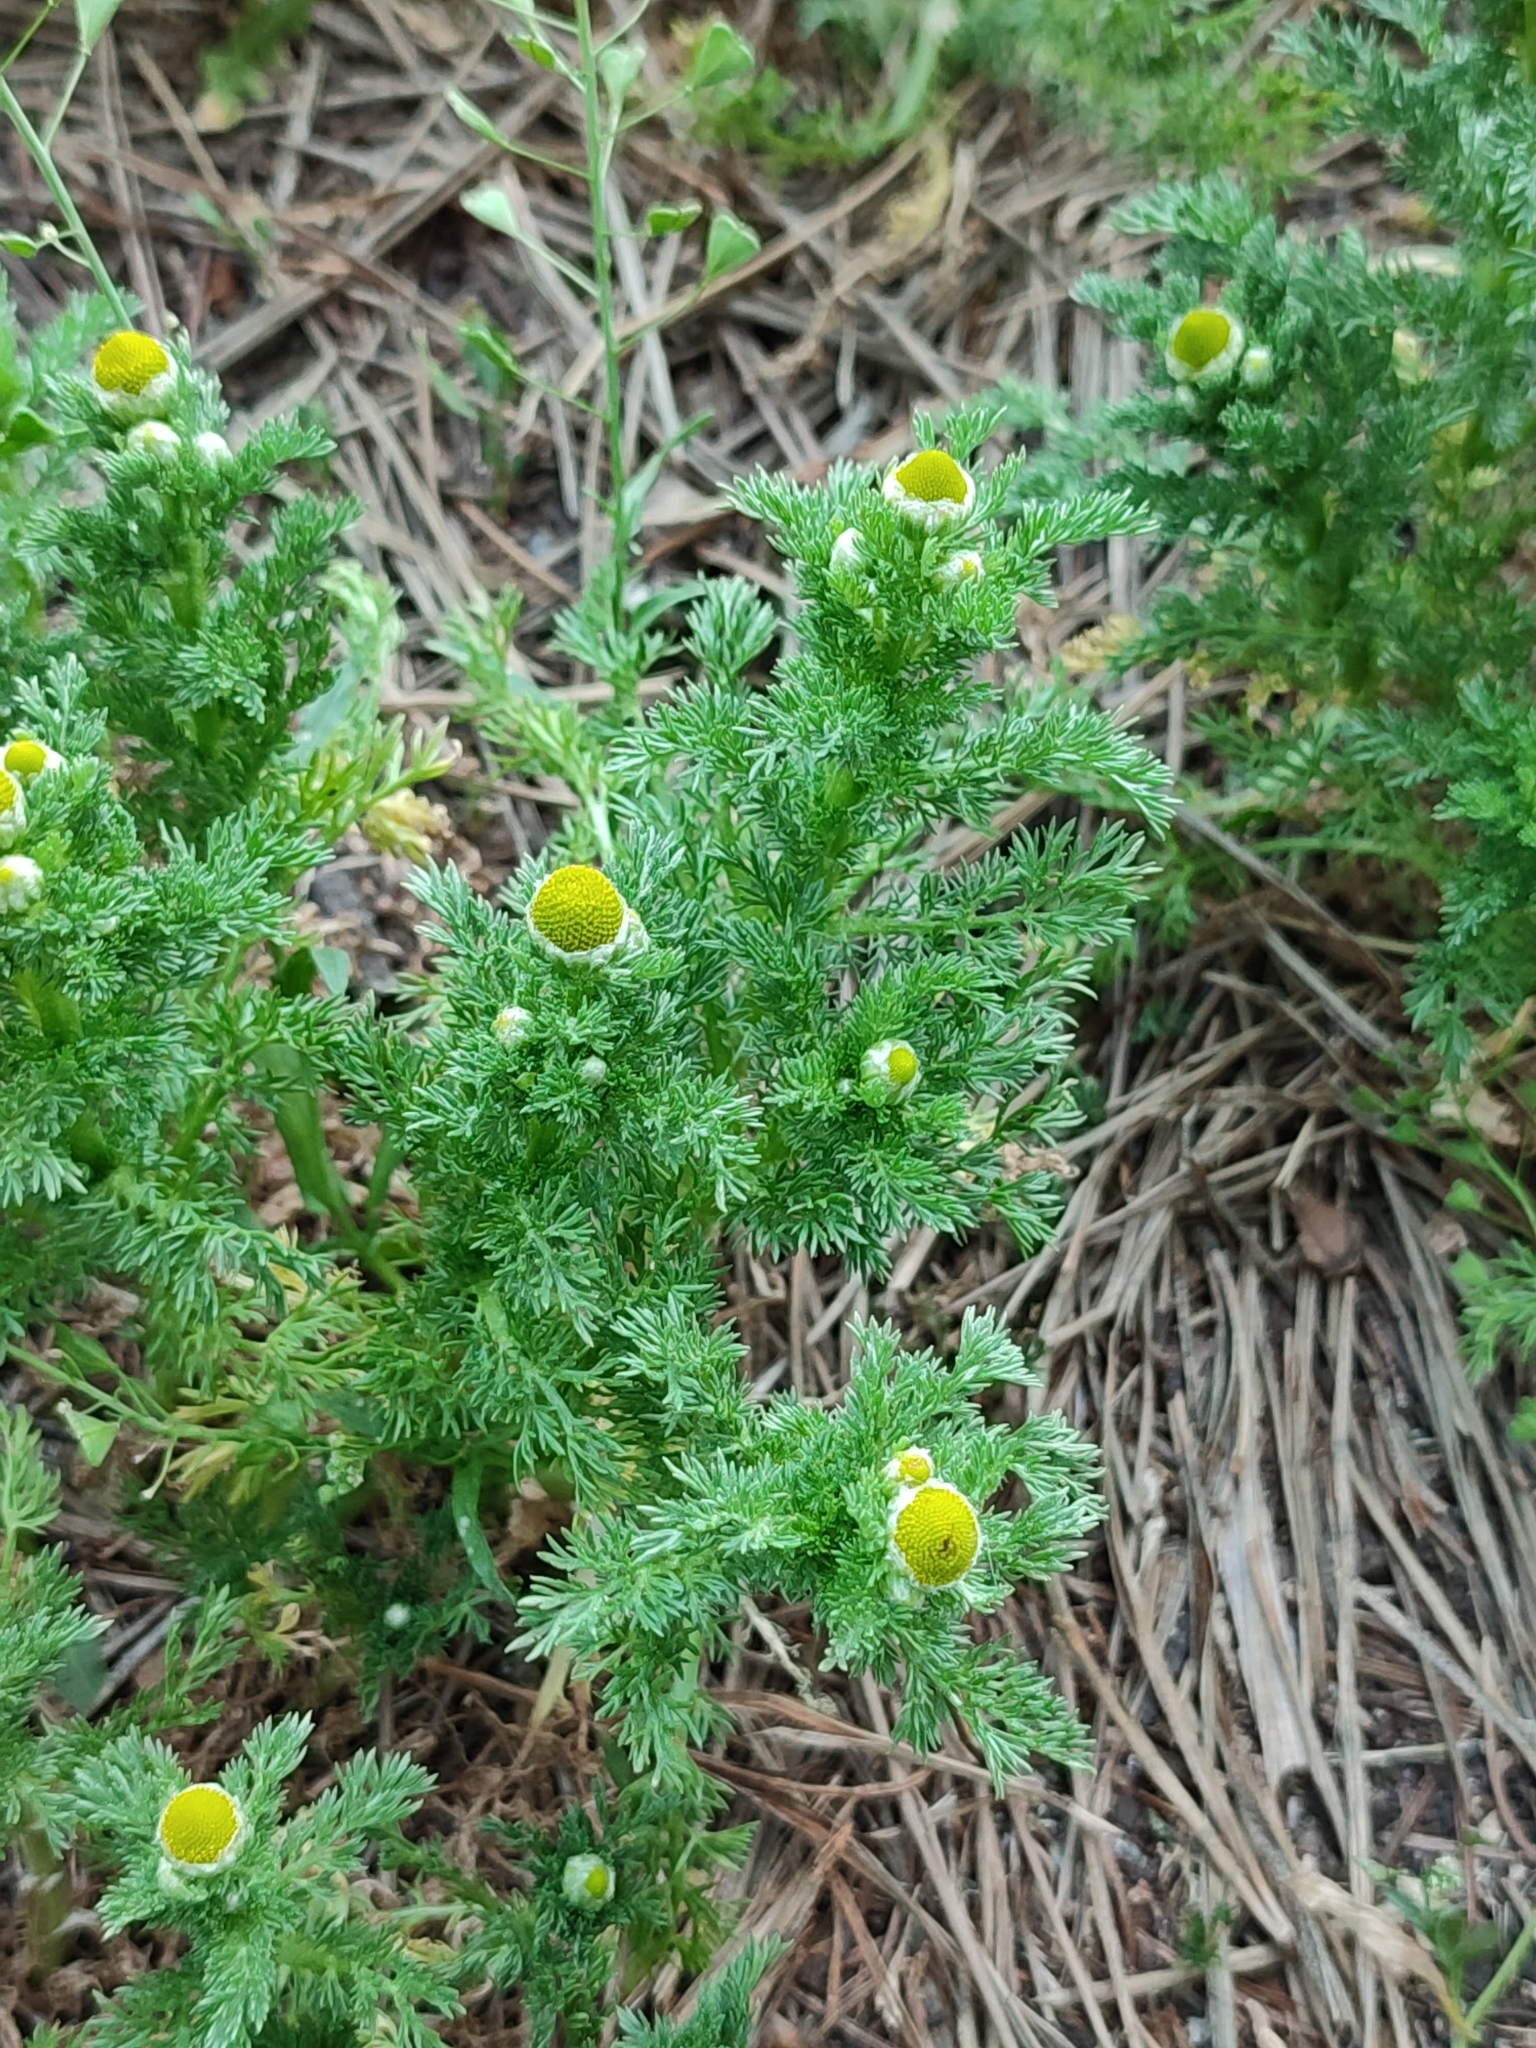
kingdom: Plantae
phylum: Tracheophyta
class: Magnoliopsida
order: Asterales
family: Asteraceae
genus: Matricaria
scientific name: Matricaria discoidea
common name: Disc mayweed
